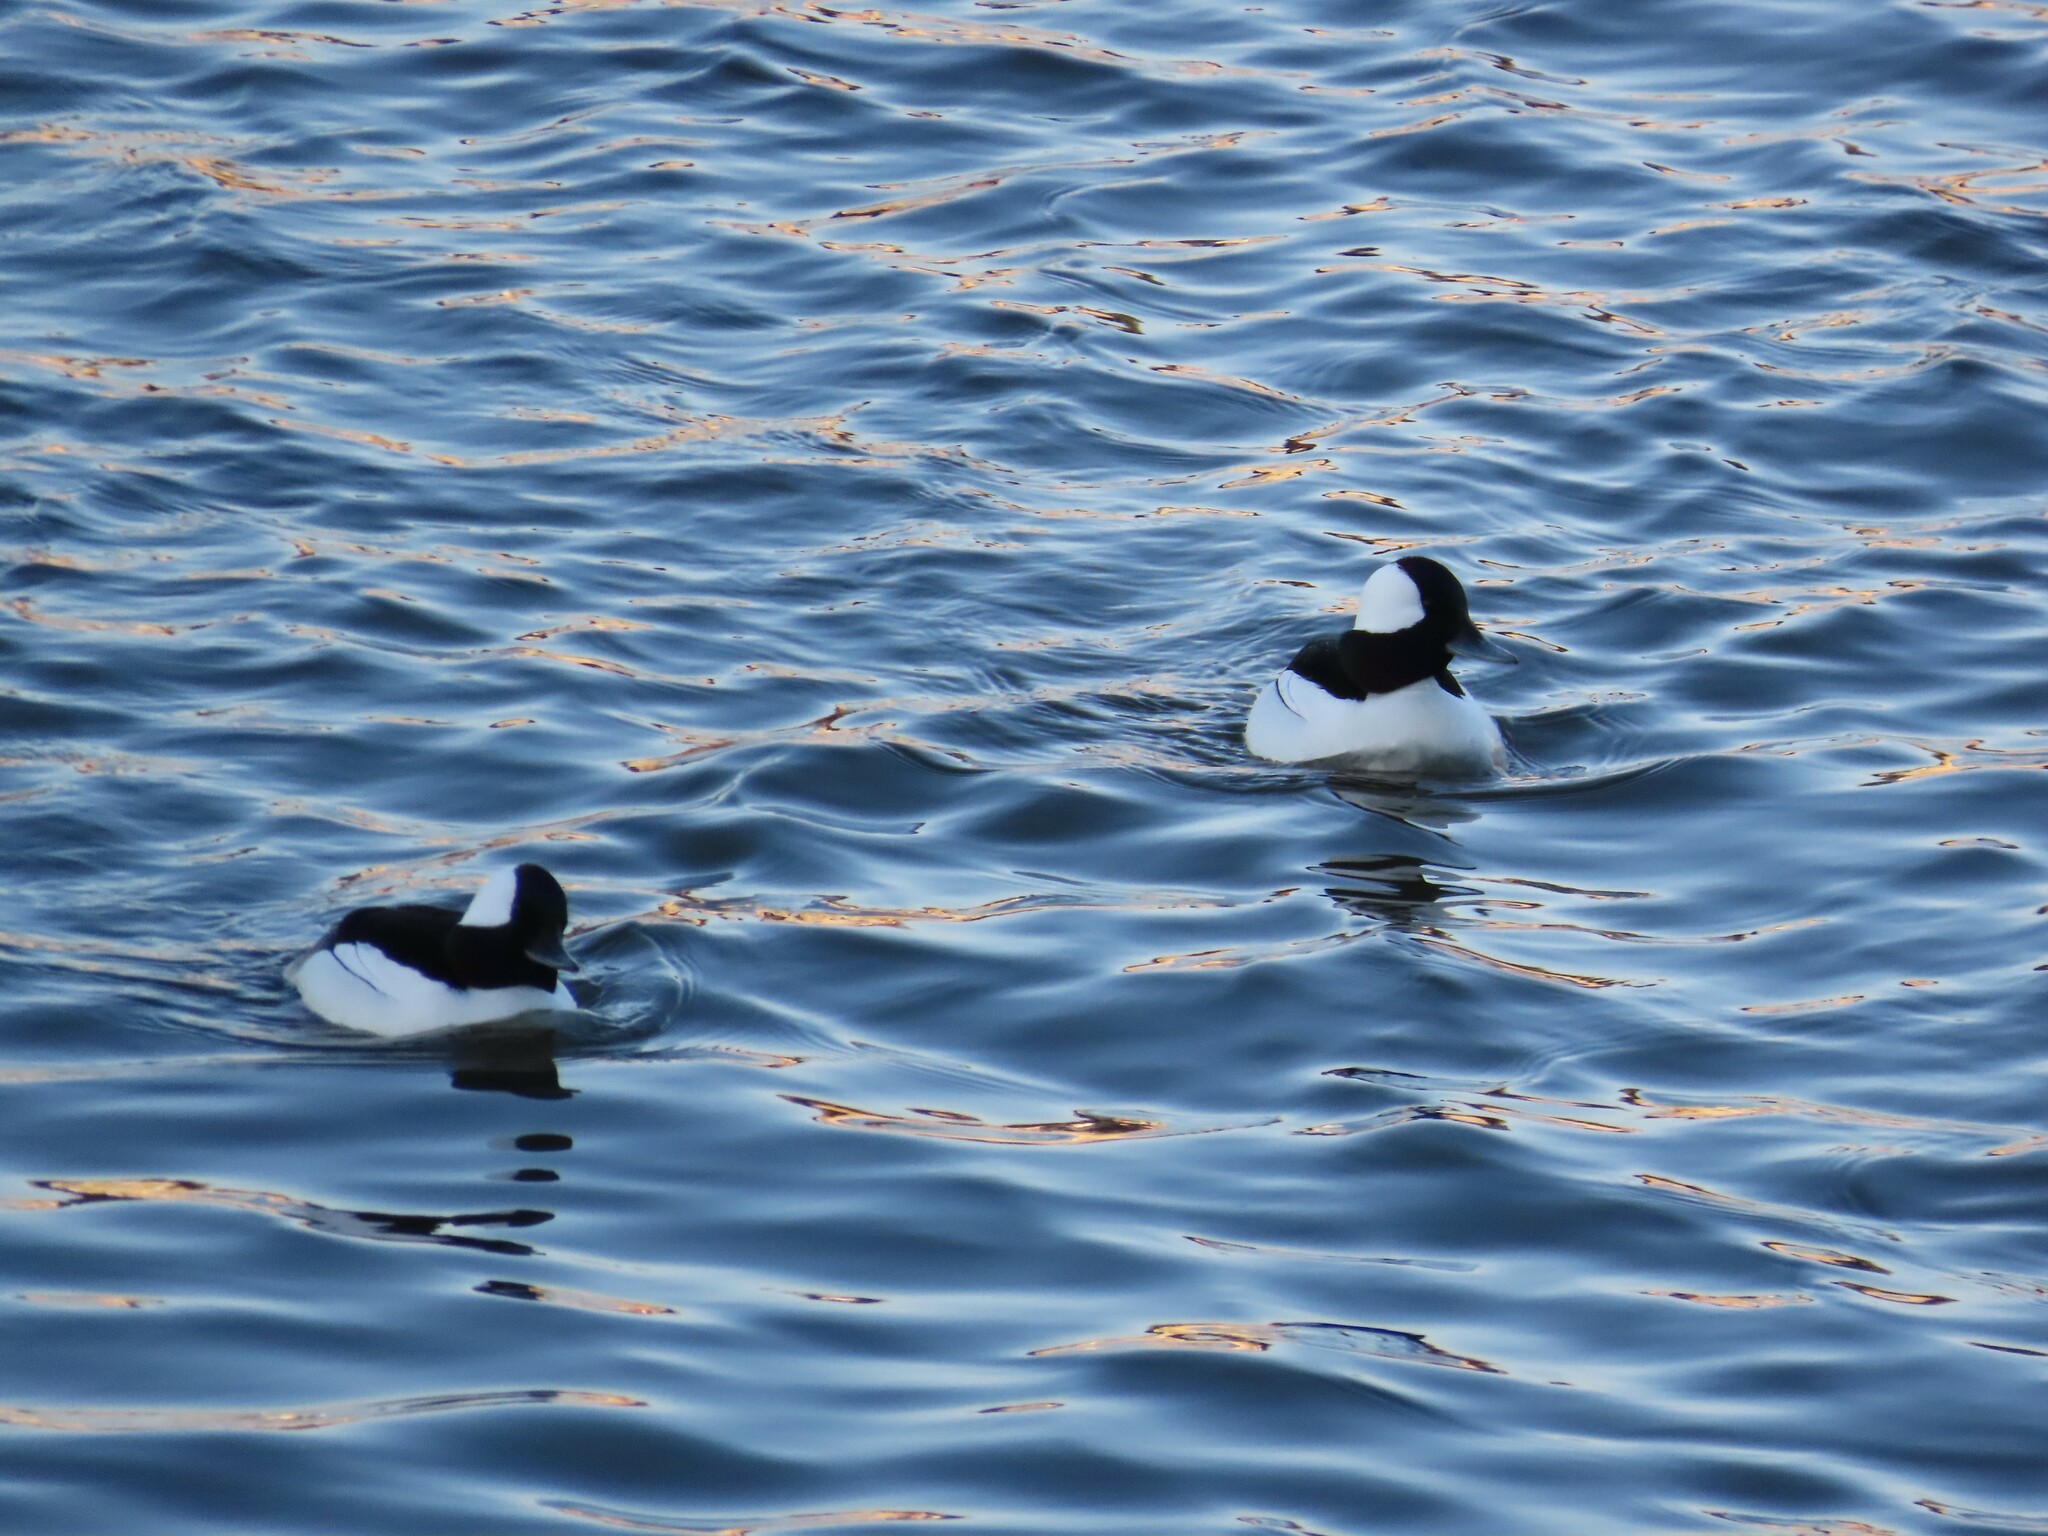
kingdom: Animalia
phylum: Chordata
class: Aves
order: Anseriformes
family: Anatidae
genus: Bucephala
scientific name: Bucephala albeola
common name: Bufflehead
